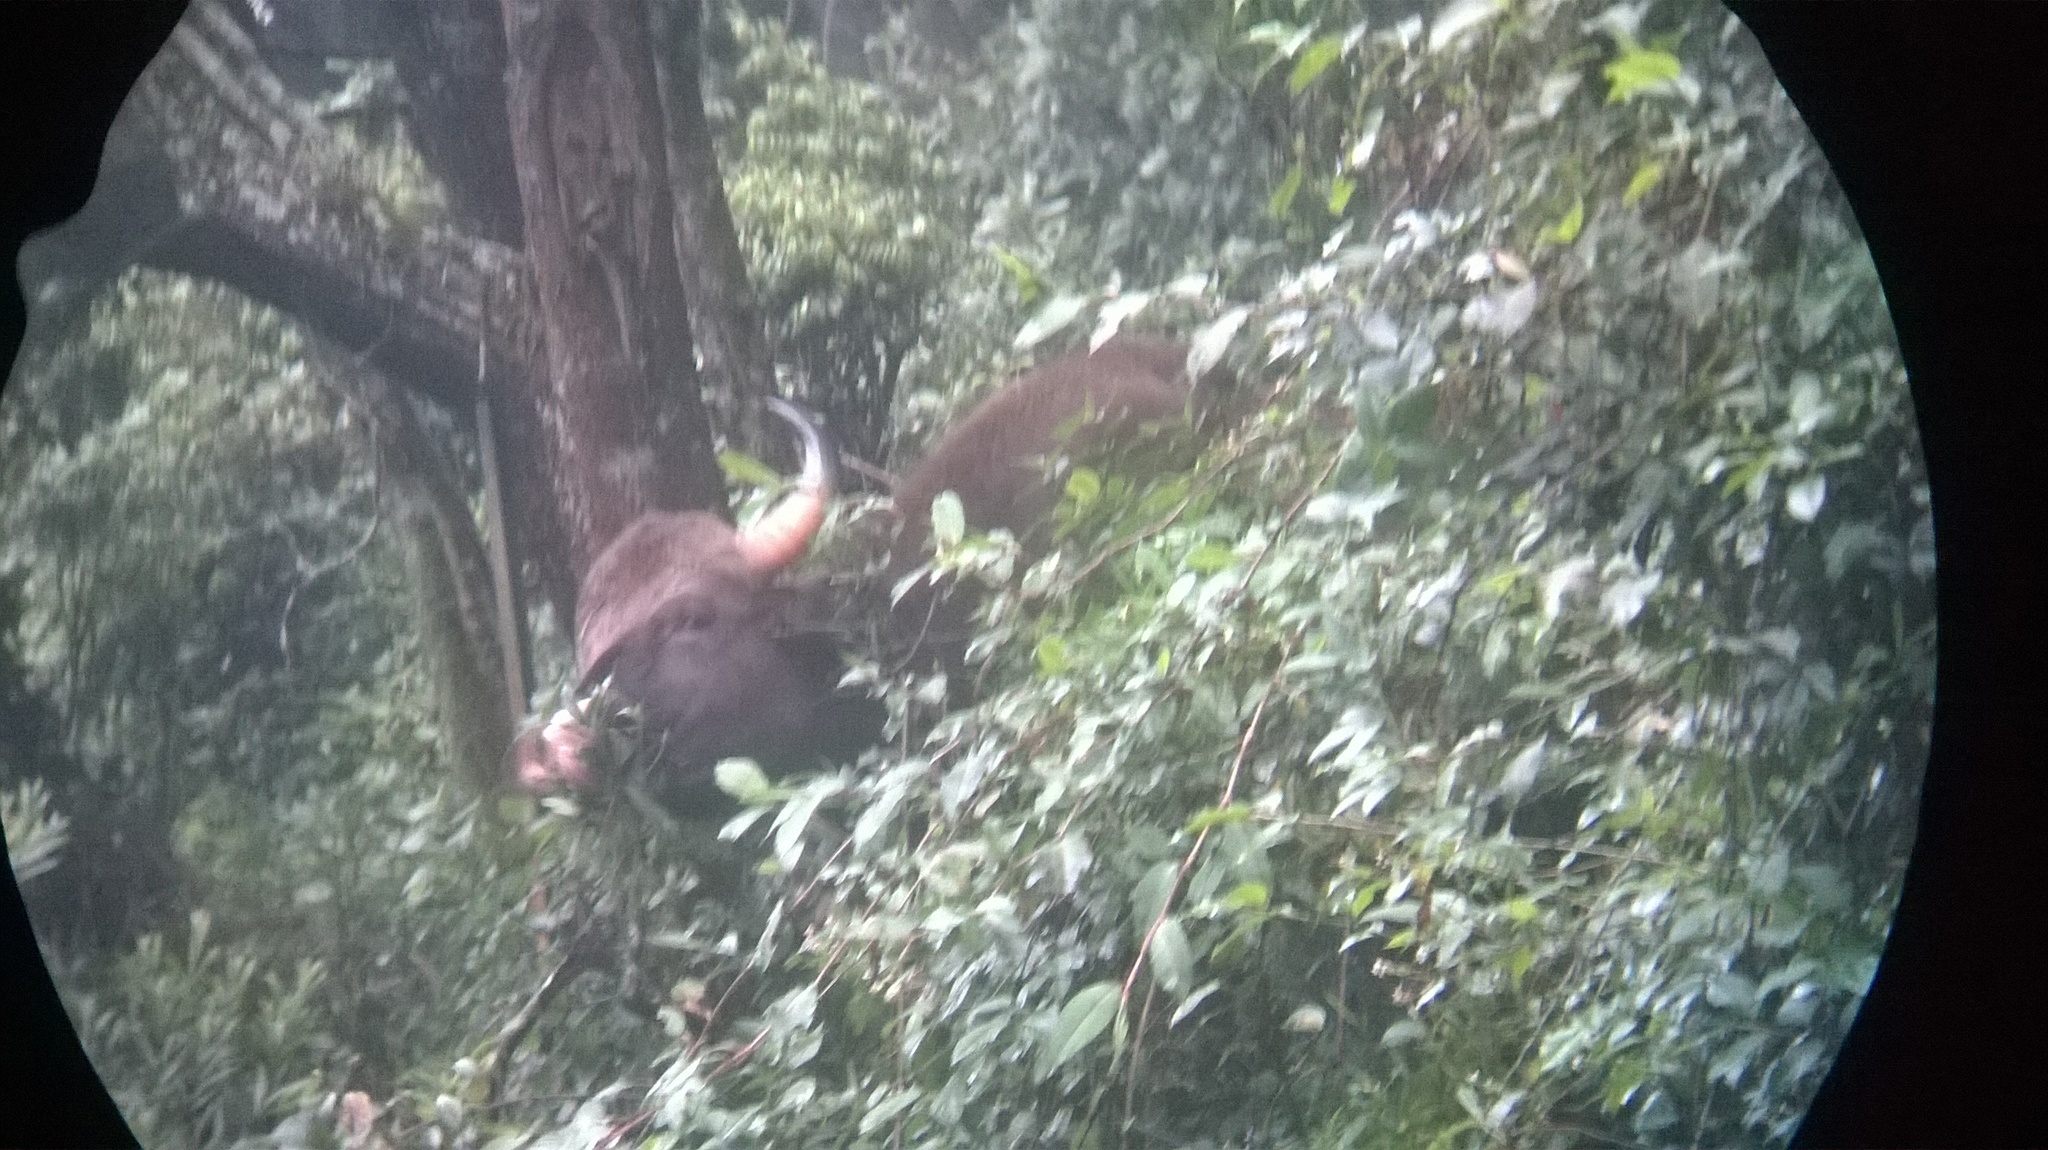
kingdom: Animalia
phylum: Chordata
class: Mammalia
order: Artiodactyla
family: Bovidae
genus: Bos
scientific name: Bos frontalis
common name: Gaur
